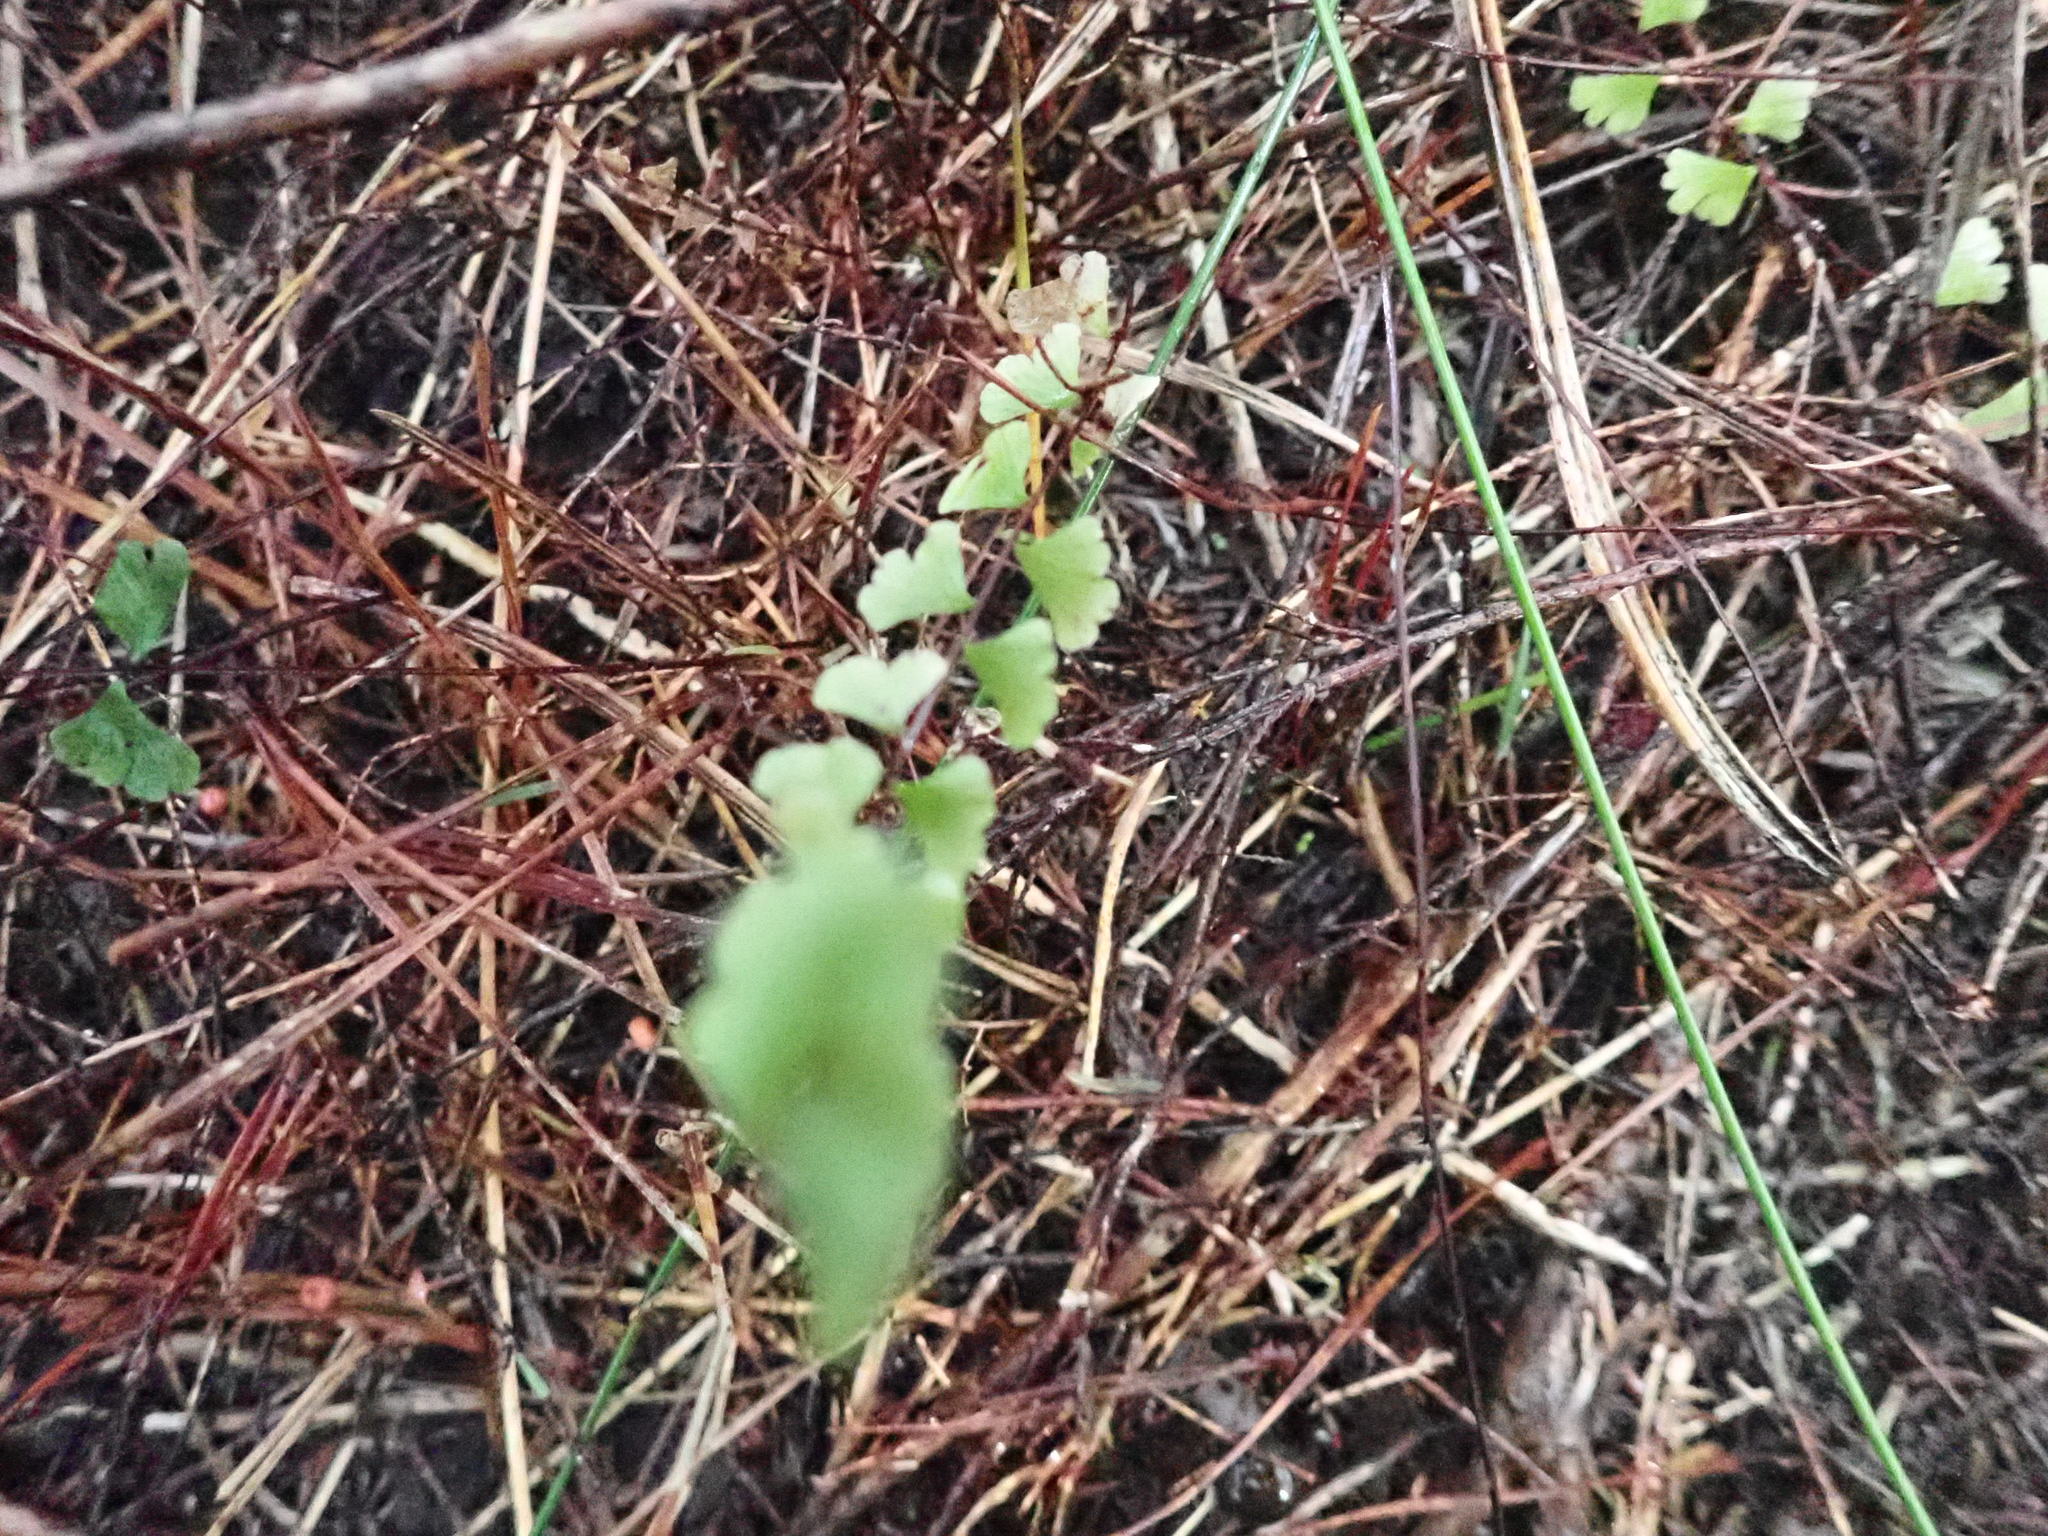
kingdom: Plantae
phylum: Tracheophyta
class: Polypodiopsida
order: Polypodiales
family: Lindsaeaceae
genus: Lindsaea
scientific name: Lindsaea linearis
